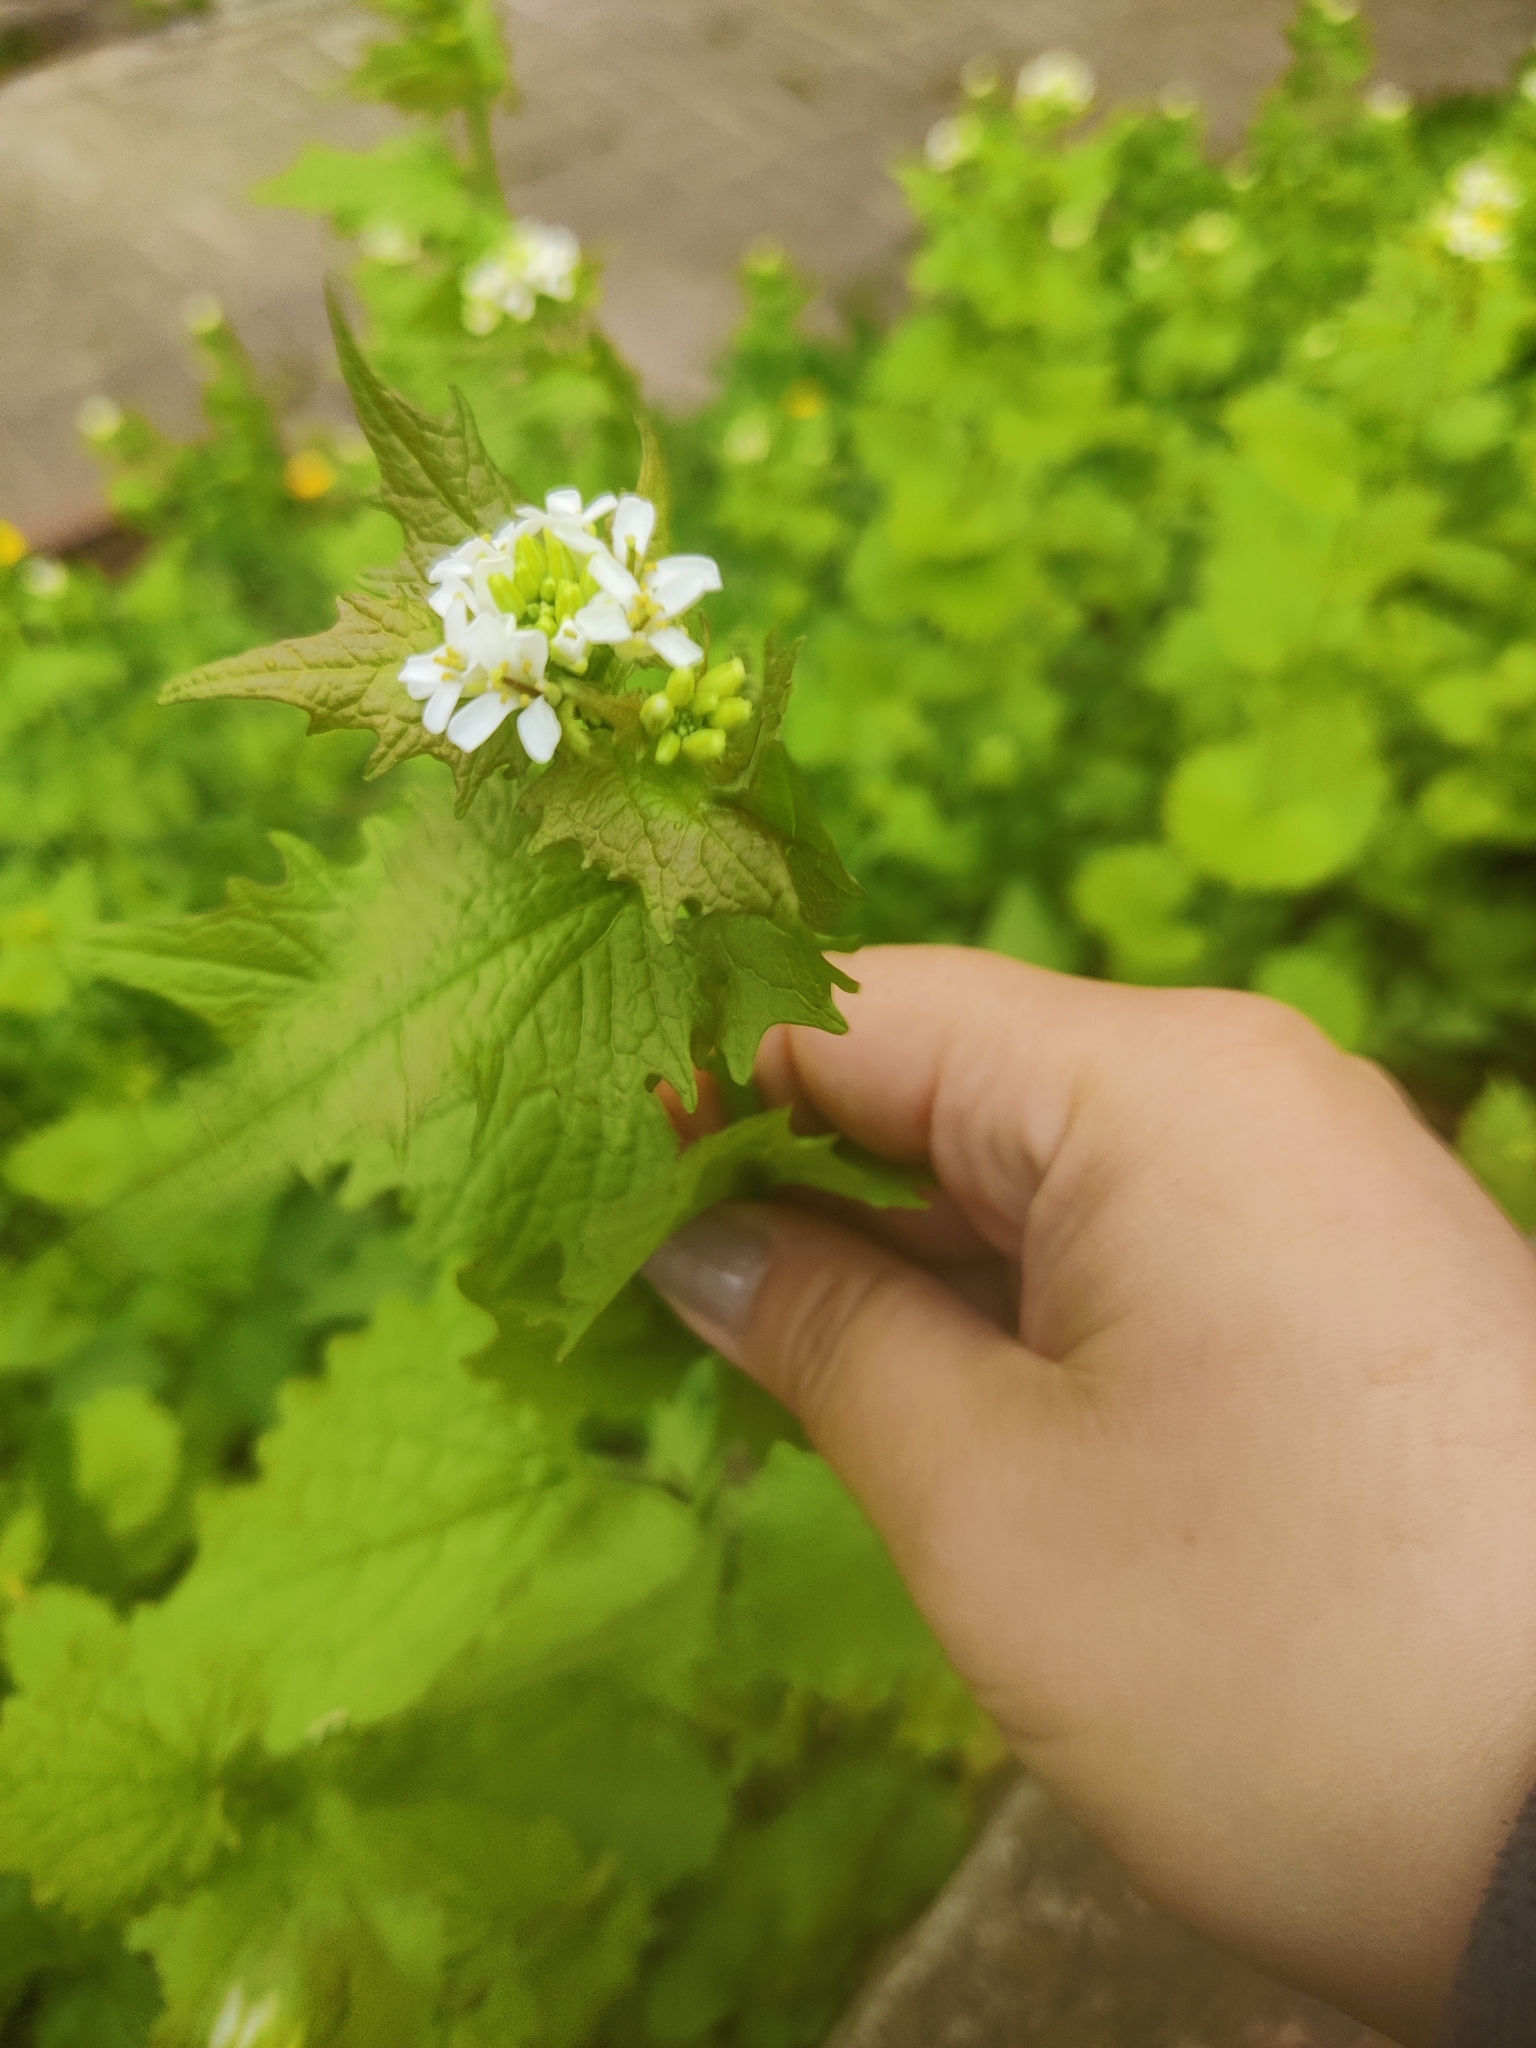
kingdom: Plantae
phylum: Tracheophyta
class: Magnoliopsida
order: Brassicales
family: Brassicaceae
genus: Alliaria
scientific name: Alliaria petiolata
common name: Garlic mustard
